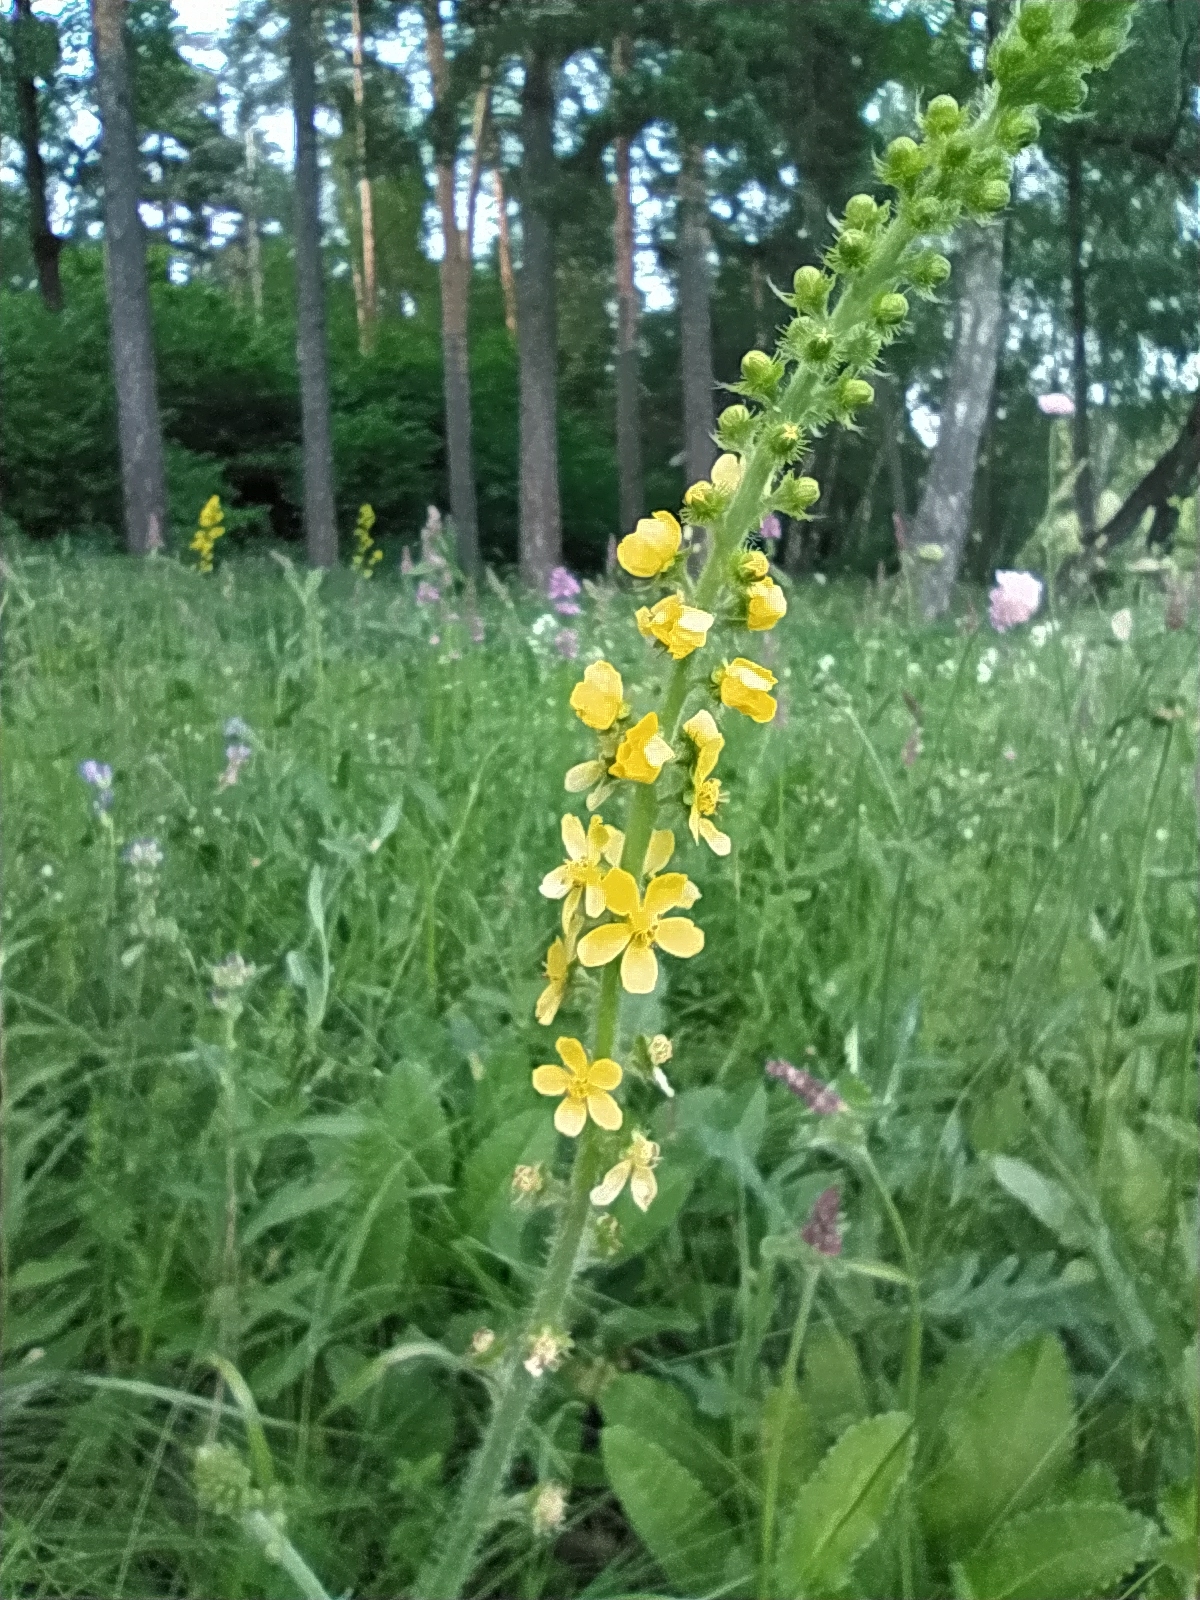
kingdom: Plantae
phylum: Tracheophyta
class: Magnoliopsida
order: Rosales
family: Rosaceae
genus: Agrimonia
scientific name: Agrimonia eupatoria
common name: Agrimony
